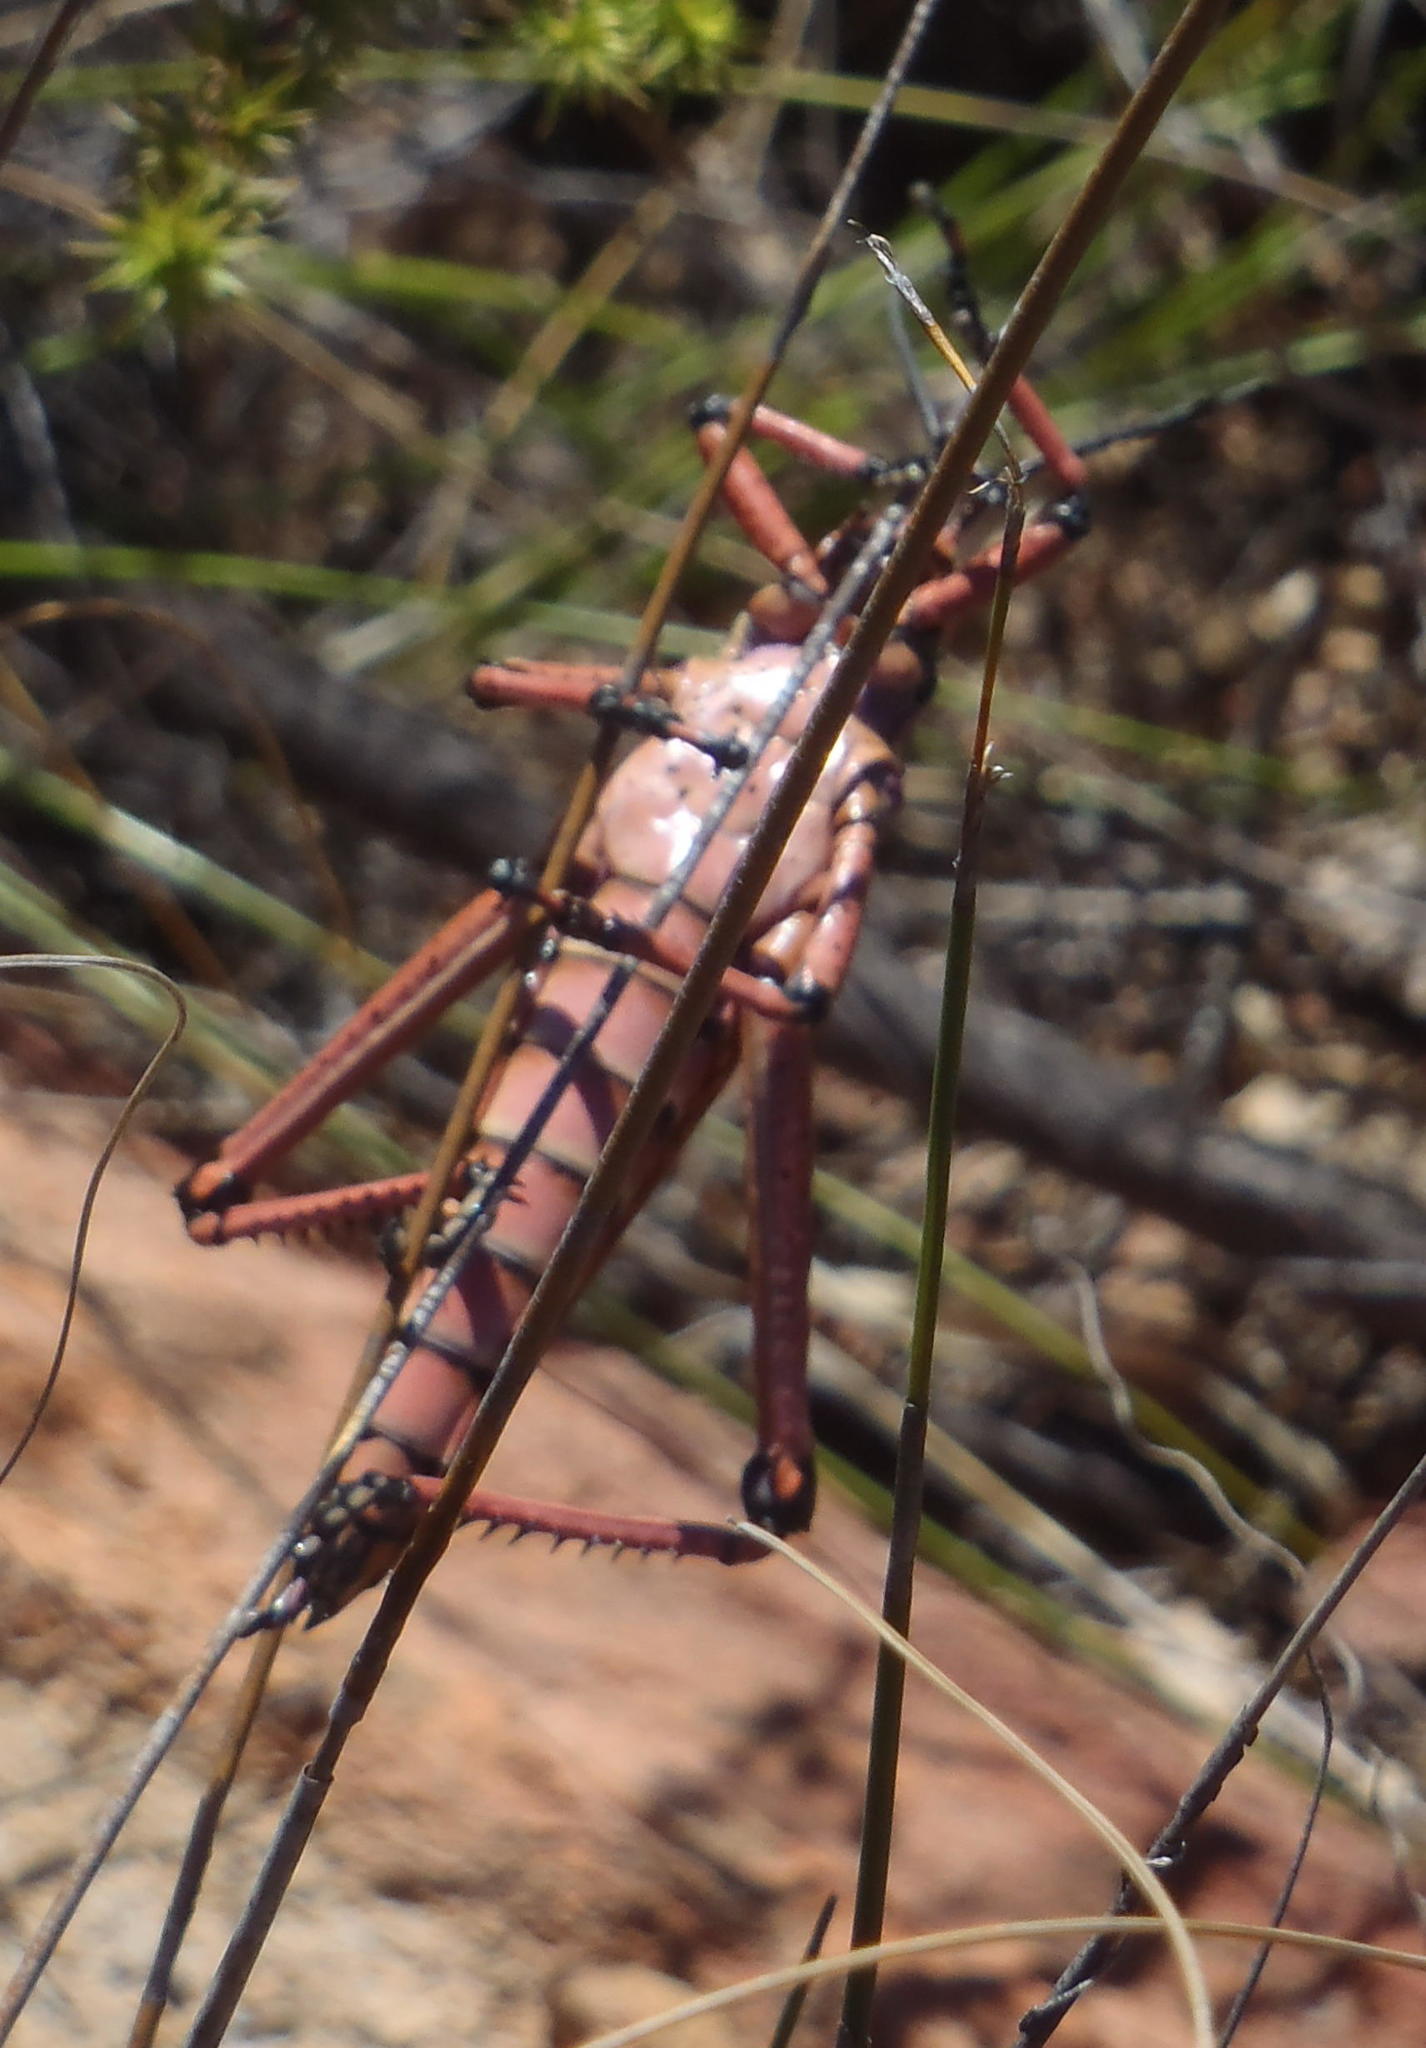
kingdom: Animalia
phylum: Arthropoda
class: Insecta
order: Orthoptera
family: Pyrgomorphidae
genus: Phymateus
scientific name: Phymateus leprosus
